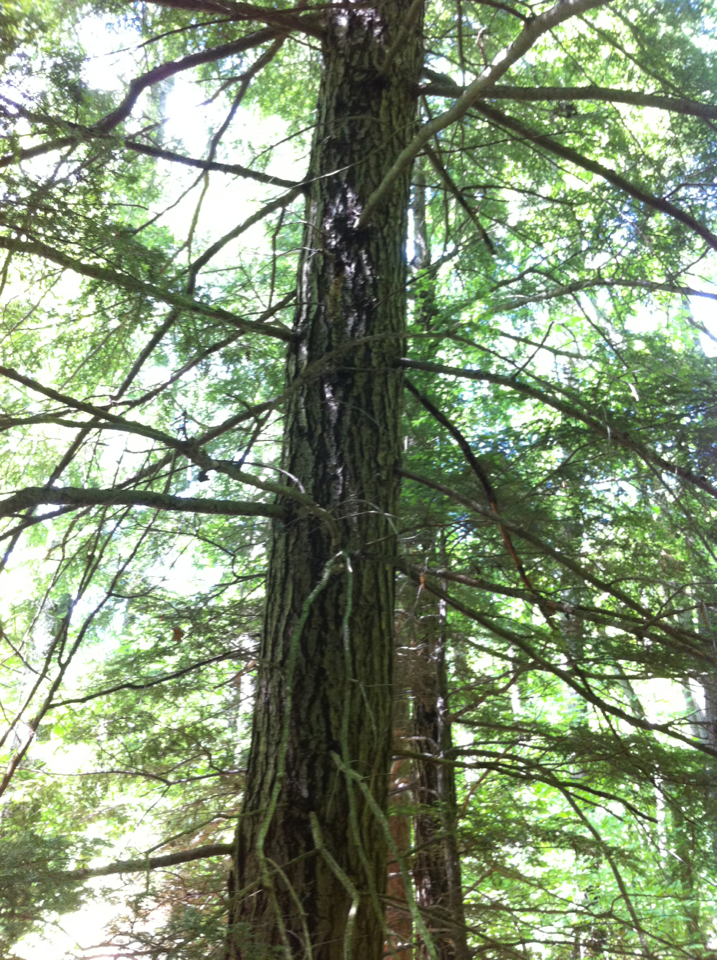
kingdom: Plantae
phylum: Tracheophyta
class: Pinopsida
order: Pinales
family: Pinaceae
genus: Tsuga
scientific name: Tsuga canadensis
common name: Eastern hemlock
